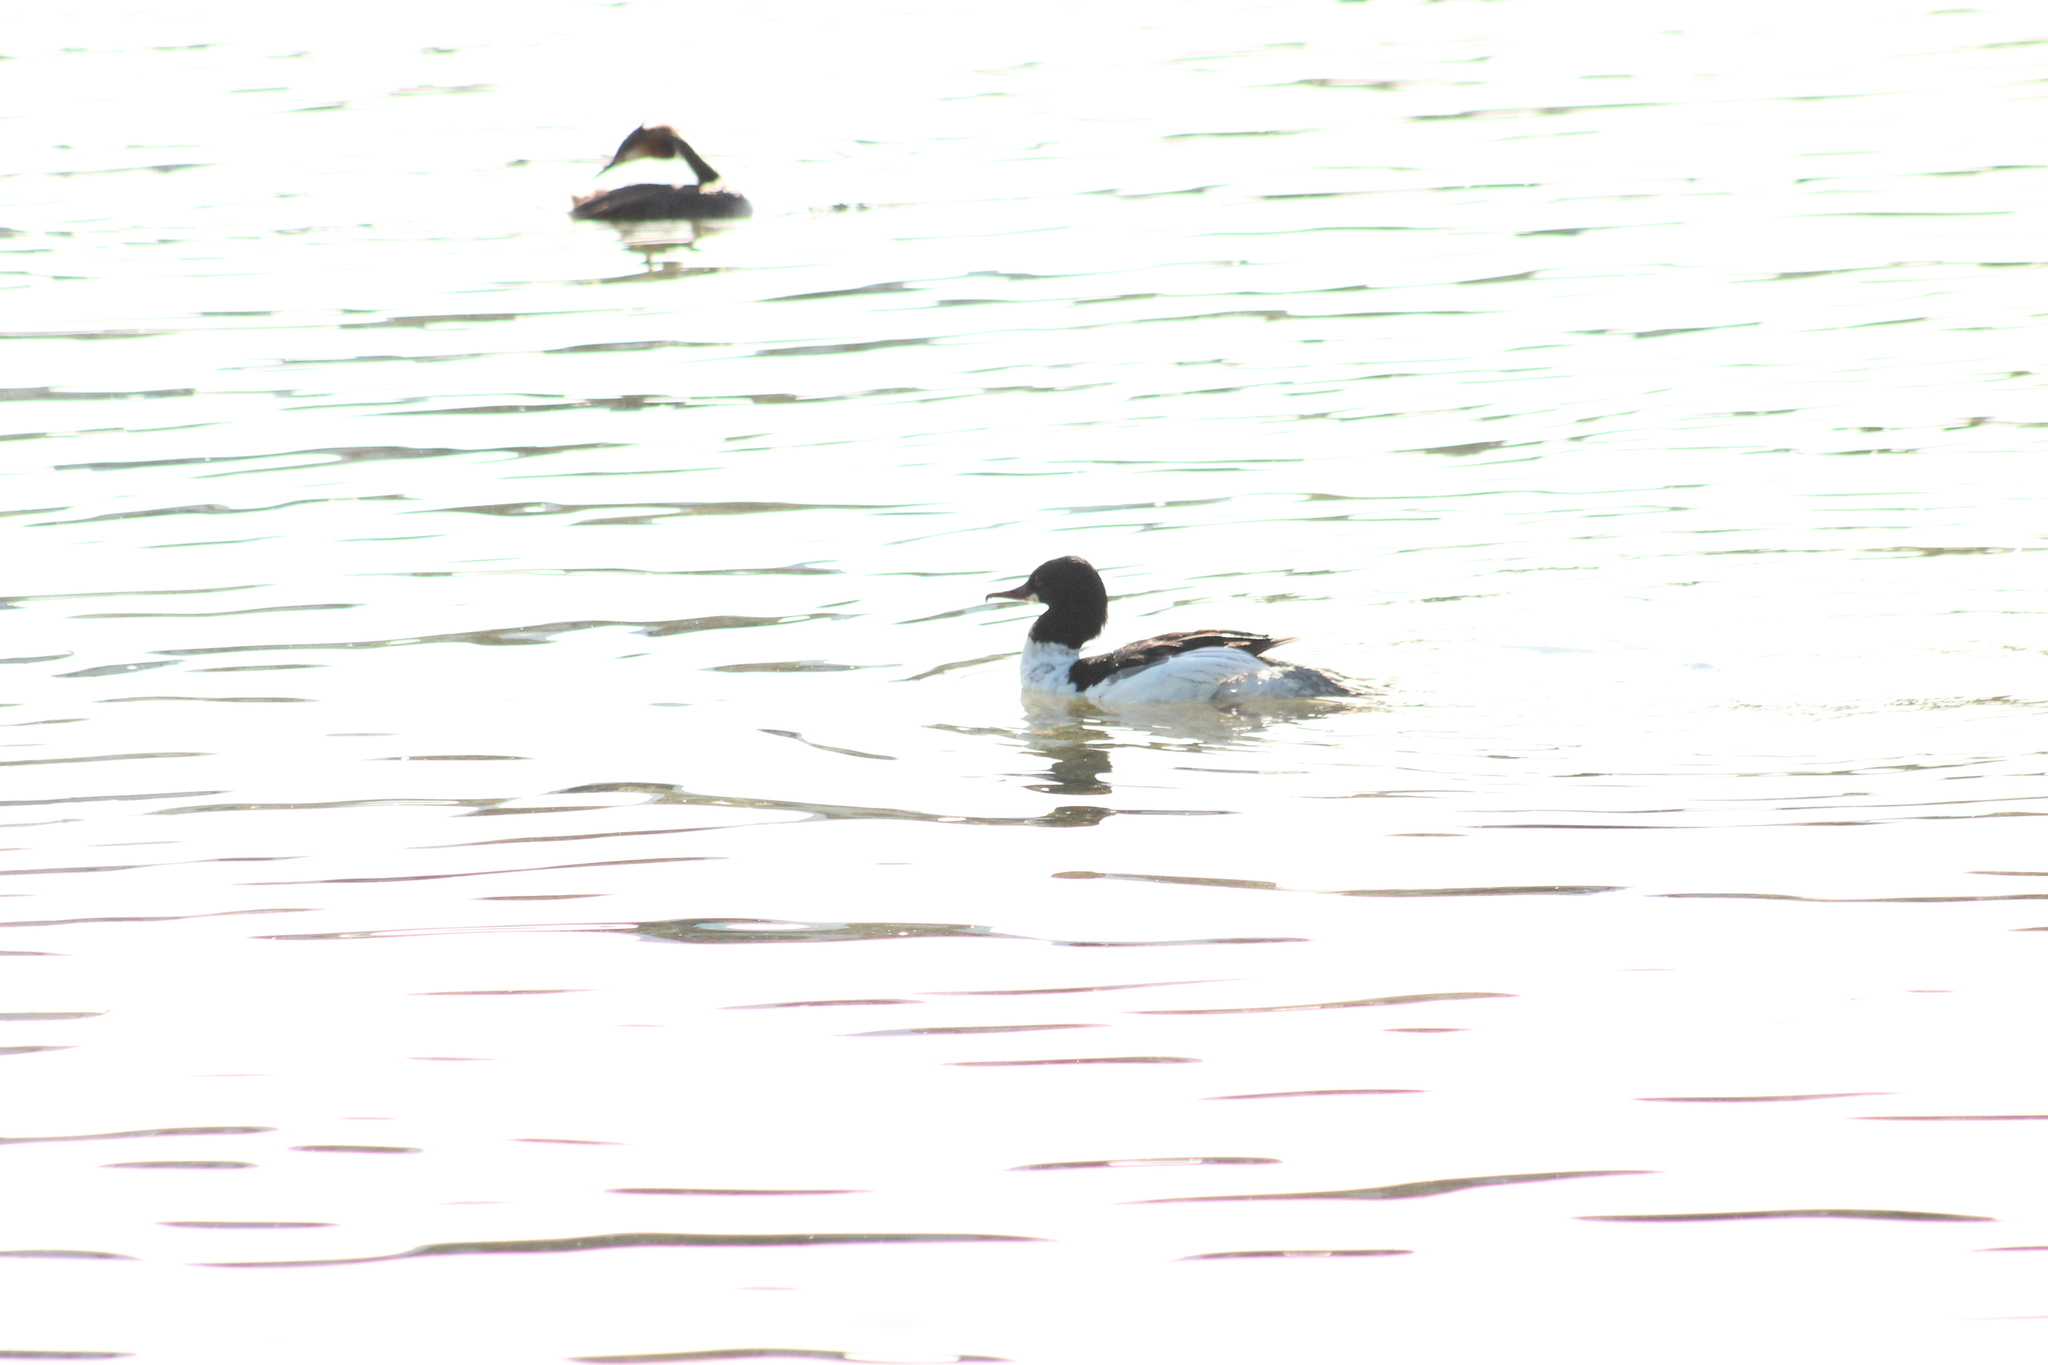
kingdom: Animalia
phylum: Chordata
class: Aves
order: Anseriformes
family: Anatidae
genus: Mergus
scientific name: Mergus merganser
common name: Common merganser
